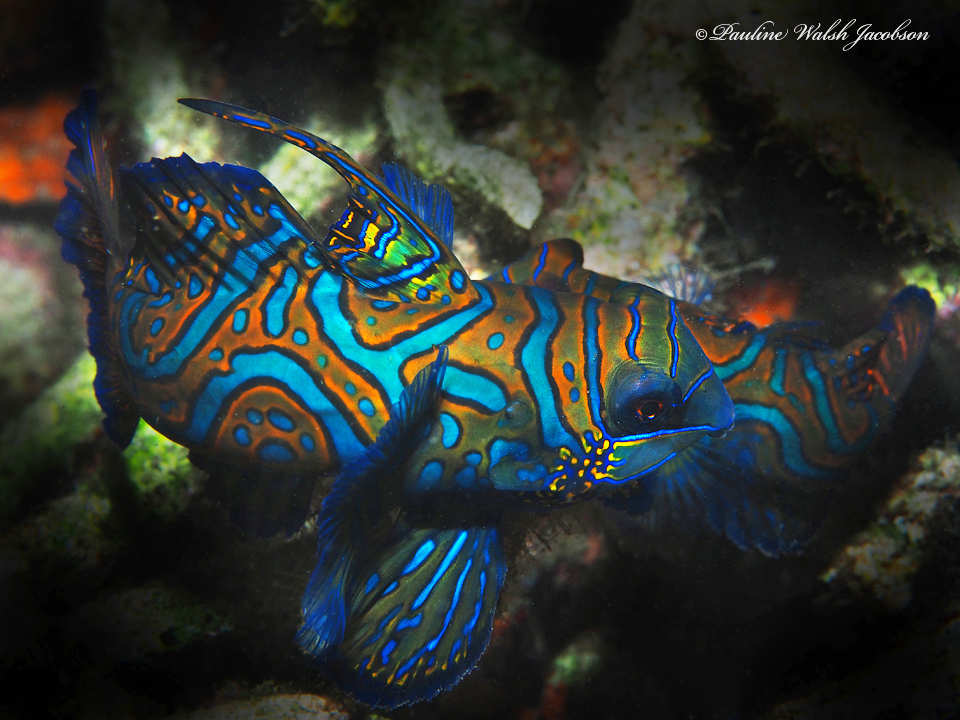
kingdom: Animalia
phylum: Chordata
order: Perciformes
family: Callionymidae
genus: Synchiropus
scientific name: Synchiropus splendidus
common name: Mandarinfish
